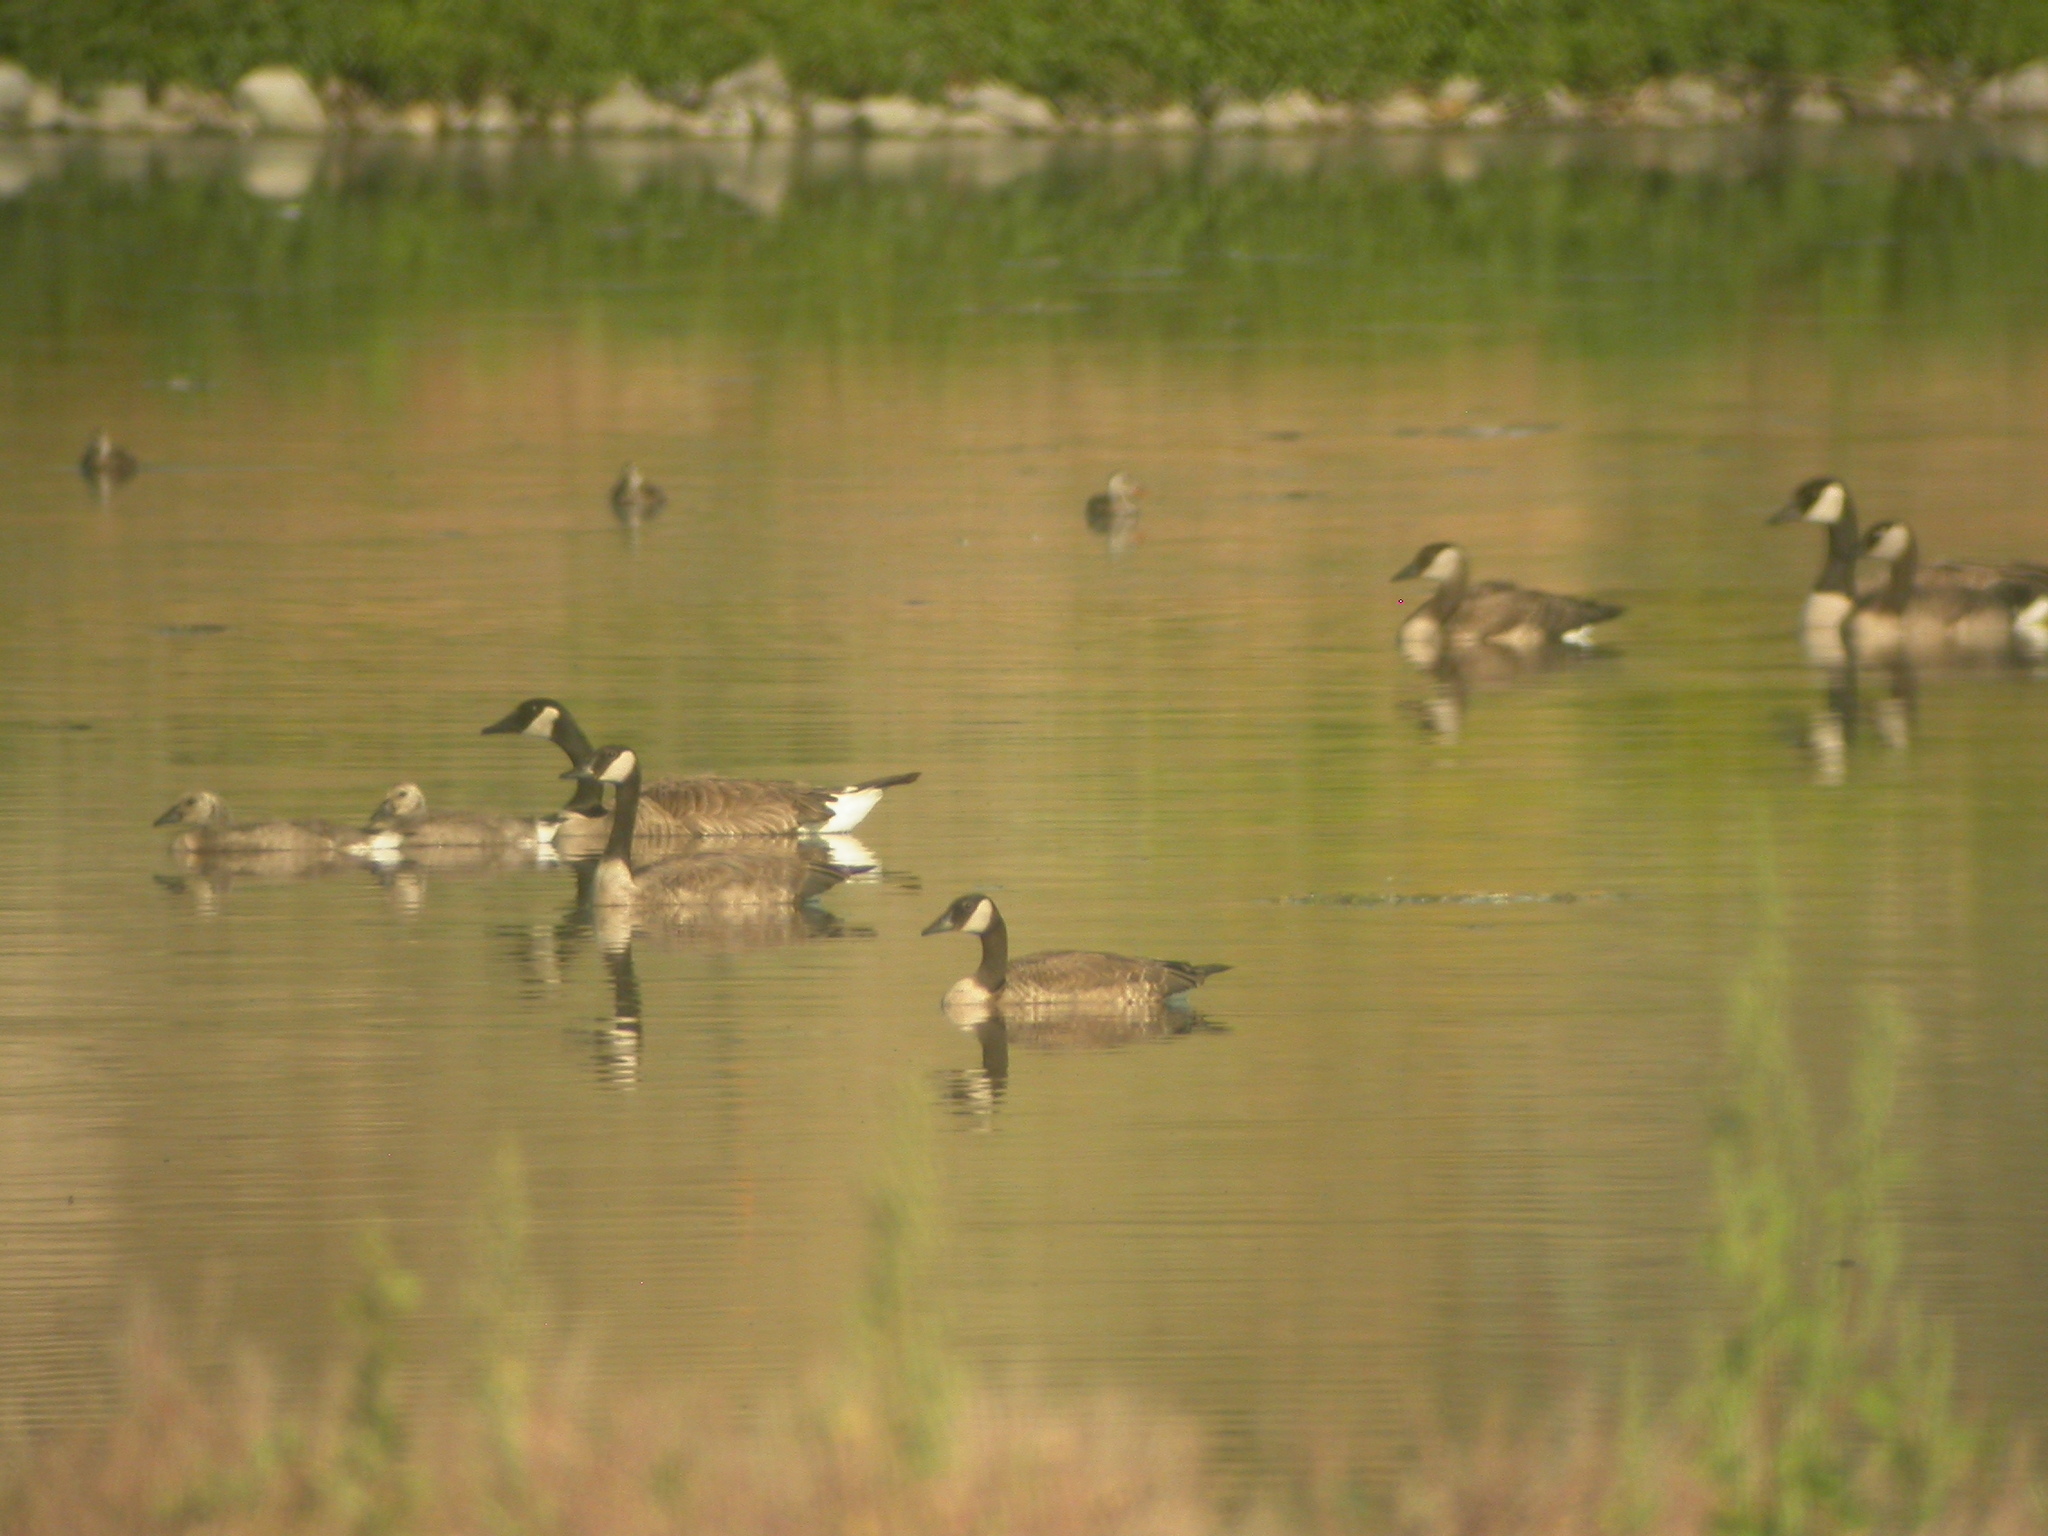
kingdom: Animalia
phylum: Chordata
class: Aves
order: Anseriformes
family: Anatidae
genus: Branta
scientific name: Branta canadensis
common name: Canada goose
